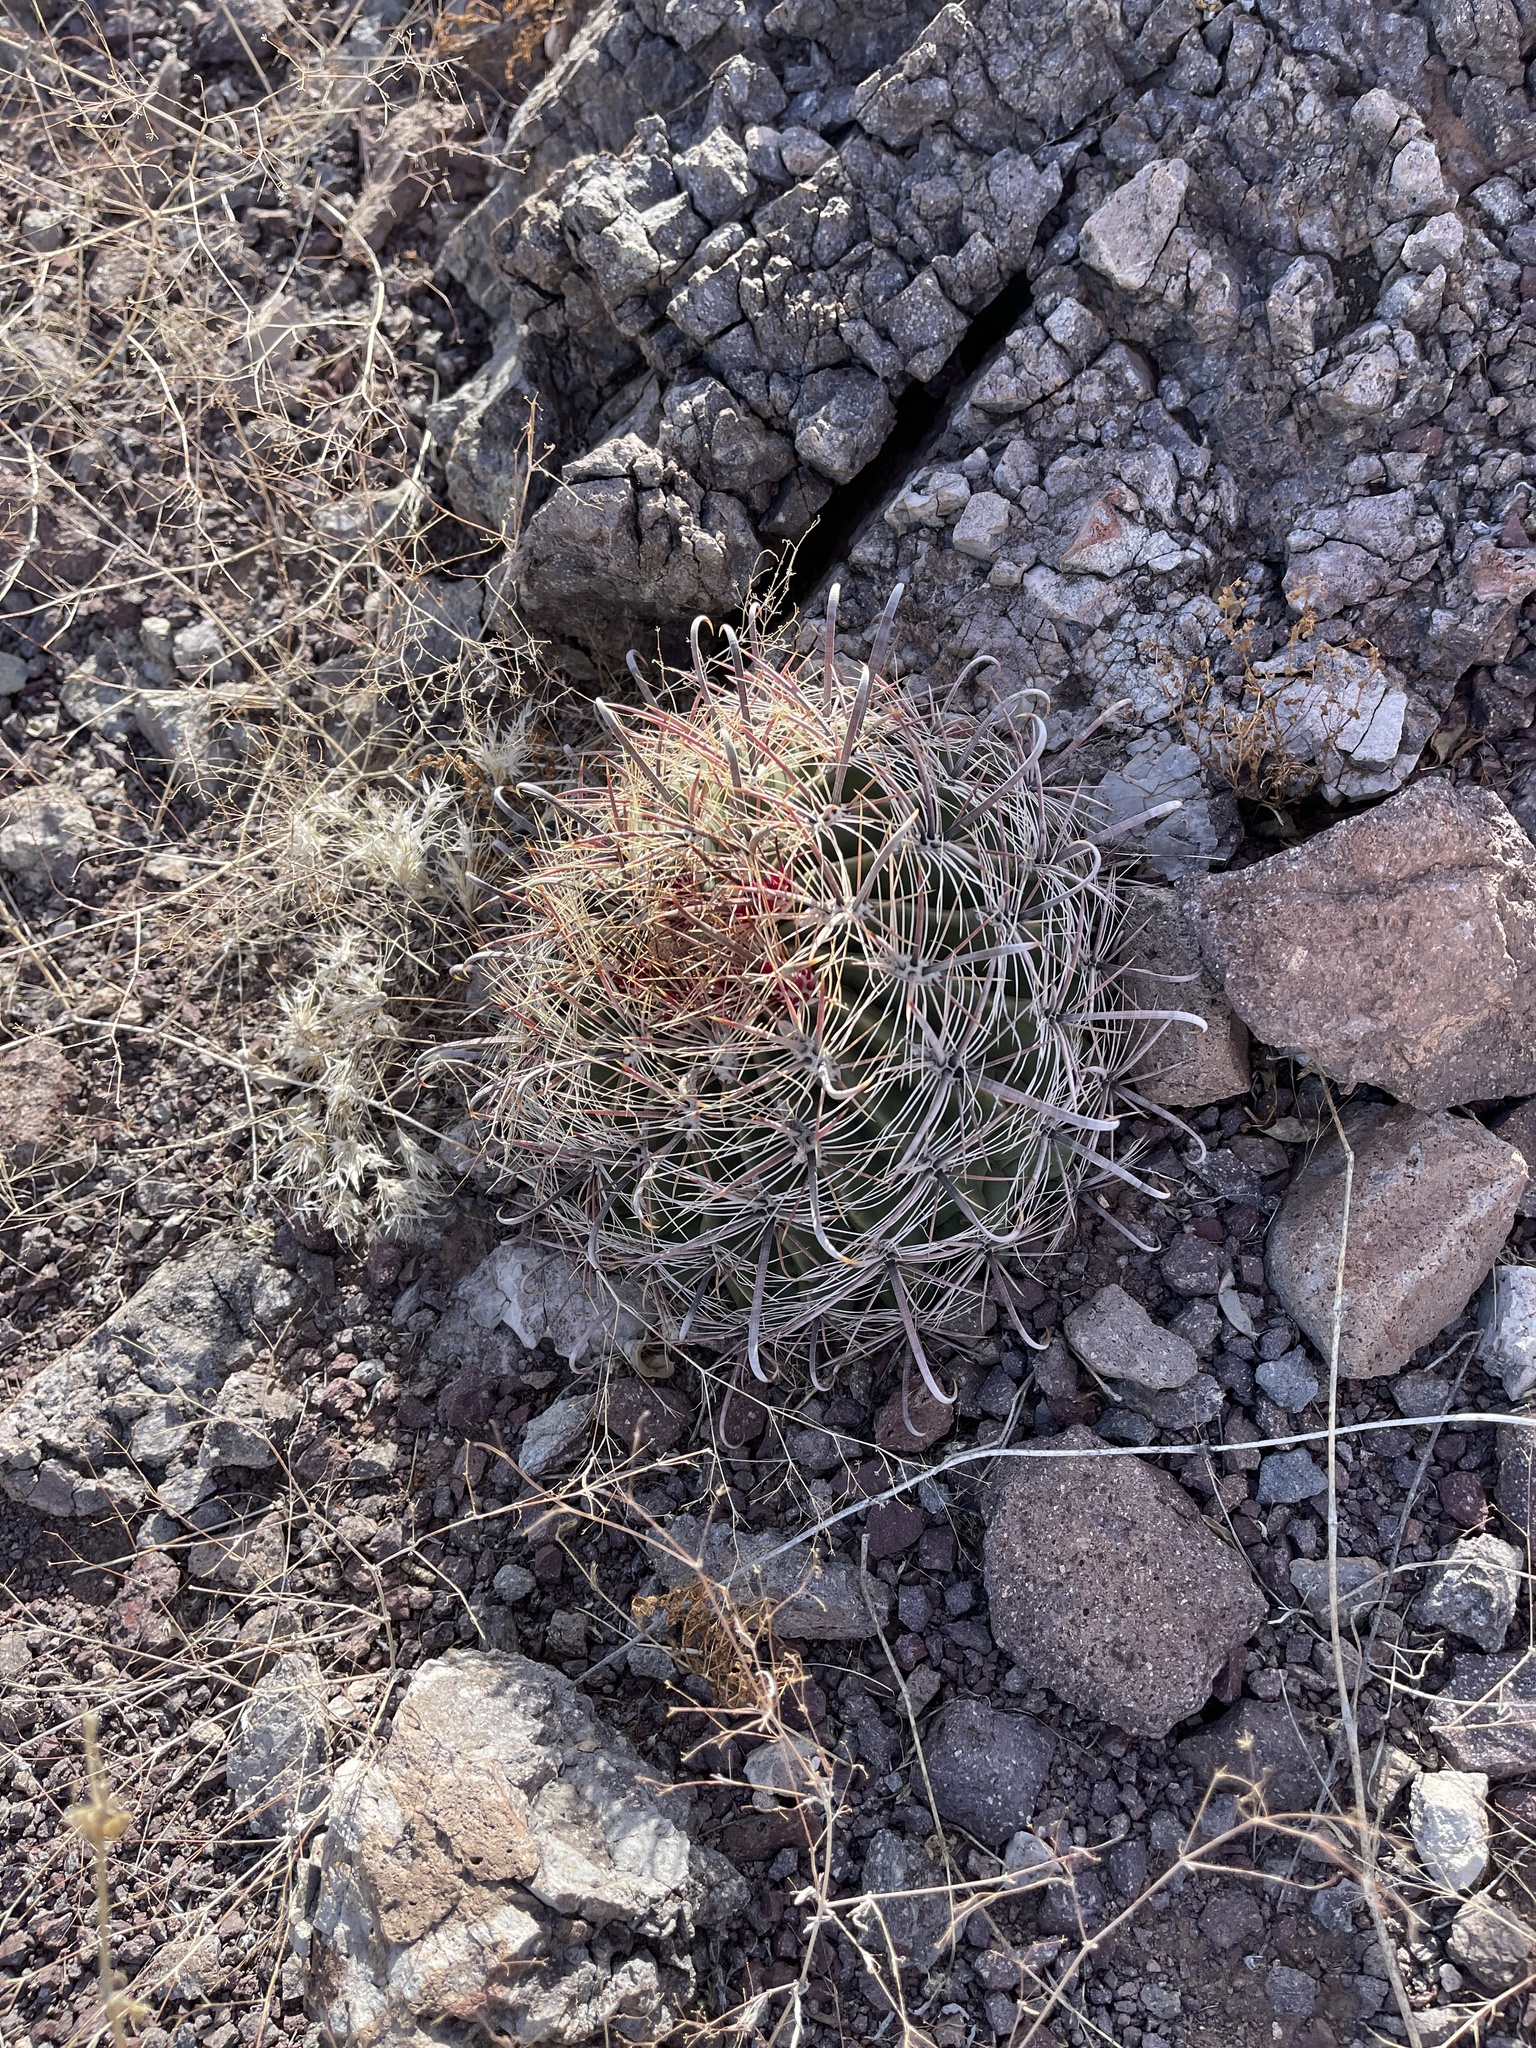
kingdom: Plantae
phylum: Tracheophyta
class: Magnoliopsida
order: Caryophyllales
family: Cactaceae
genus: Ferocactus
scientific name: Ferocactus wislizeni
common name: Candy barrel cactus
